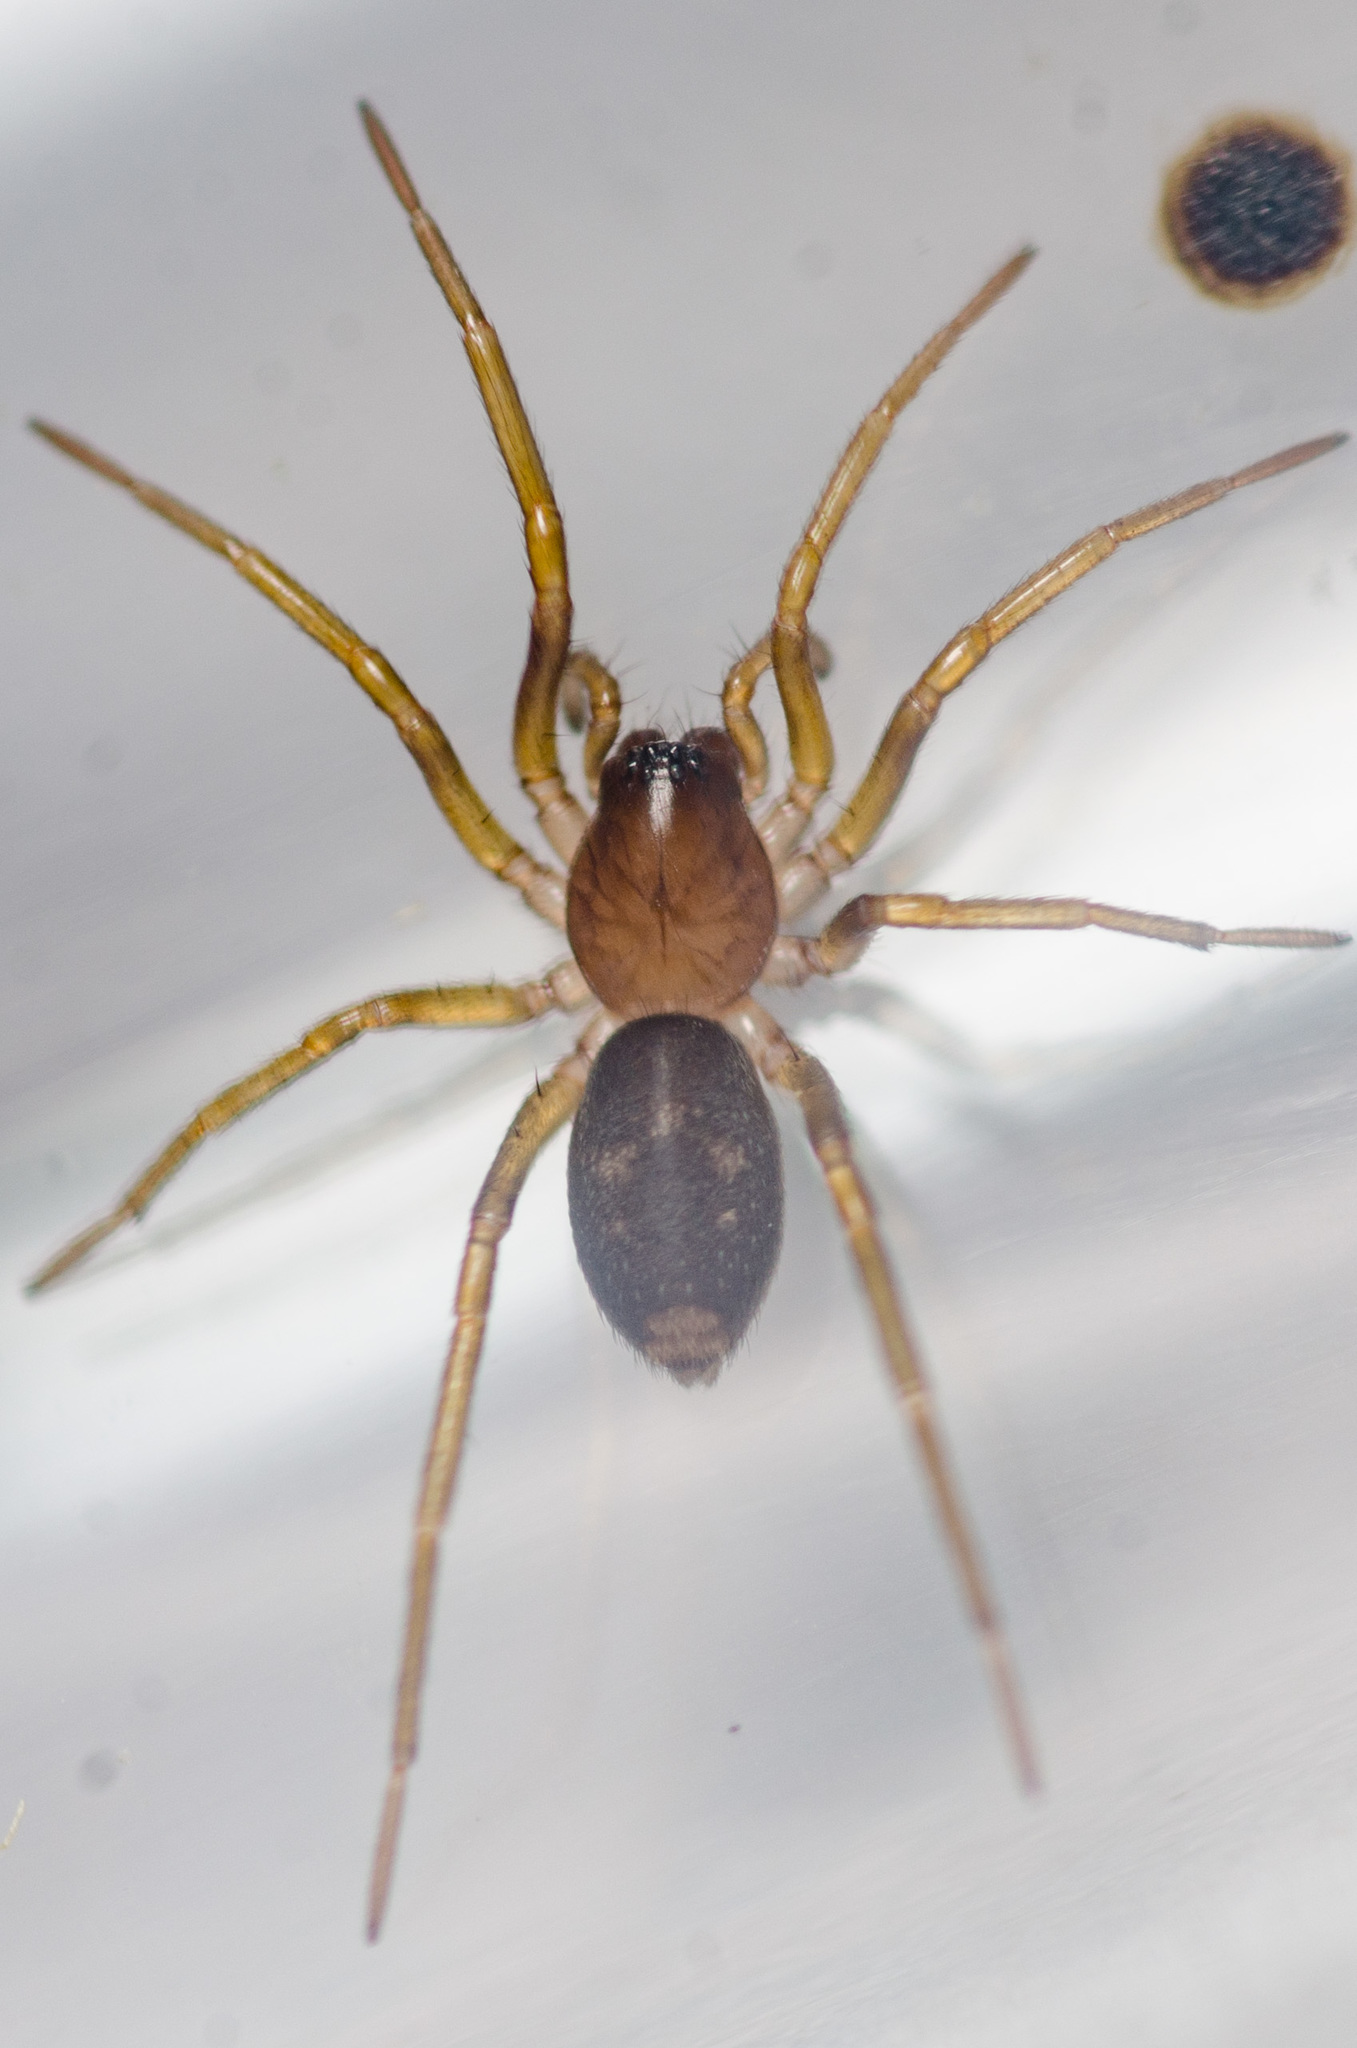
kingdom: Animalia
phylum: Arthropoda
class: Arachnida
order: Araneae
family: Corinnidae
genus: Falconina
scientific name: Falconina gracilis
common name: Antmimic spider
